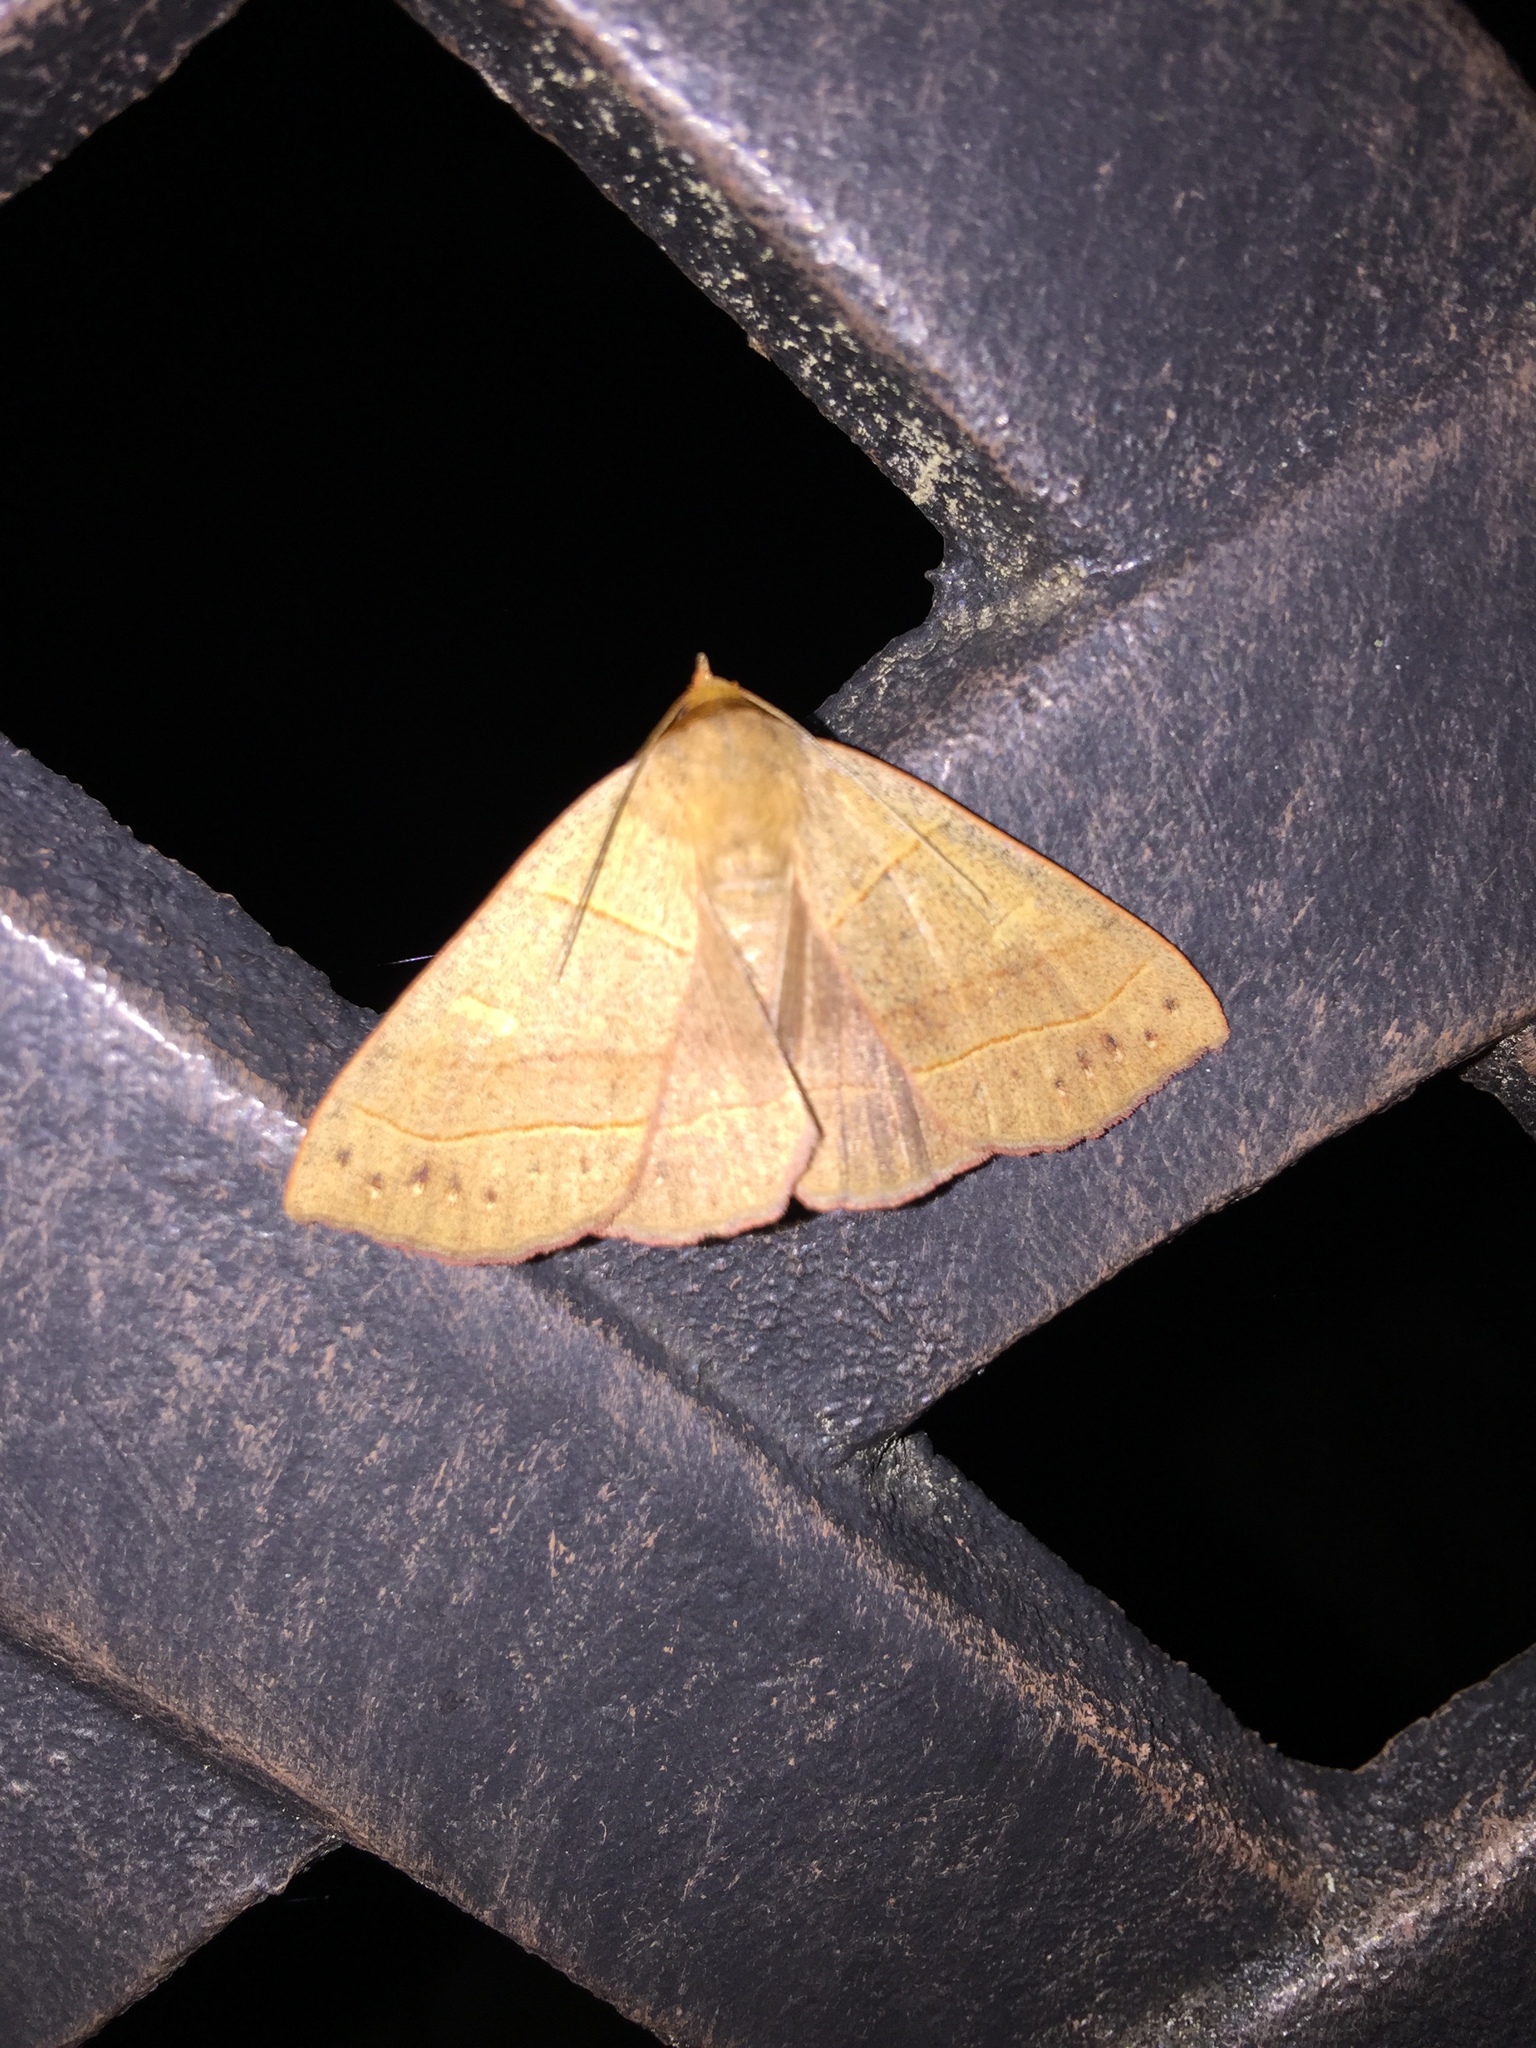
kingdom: Animalia
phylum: Arthropoda
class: Insecta
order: Lepidoptera
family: Erebidae
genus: Panopoda
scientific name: Panopoda rufimargo
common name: Red-lined panopoda moth
